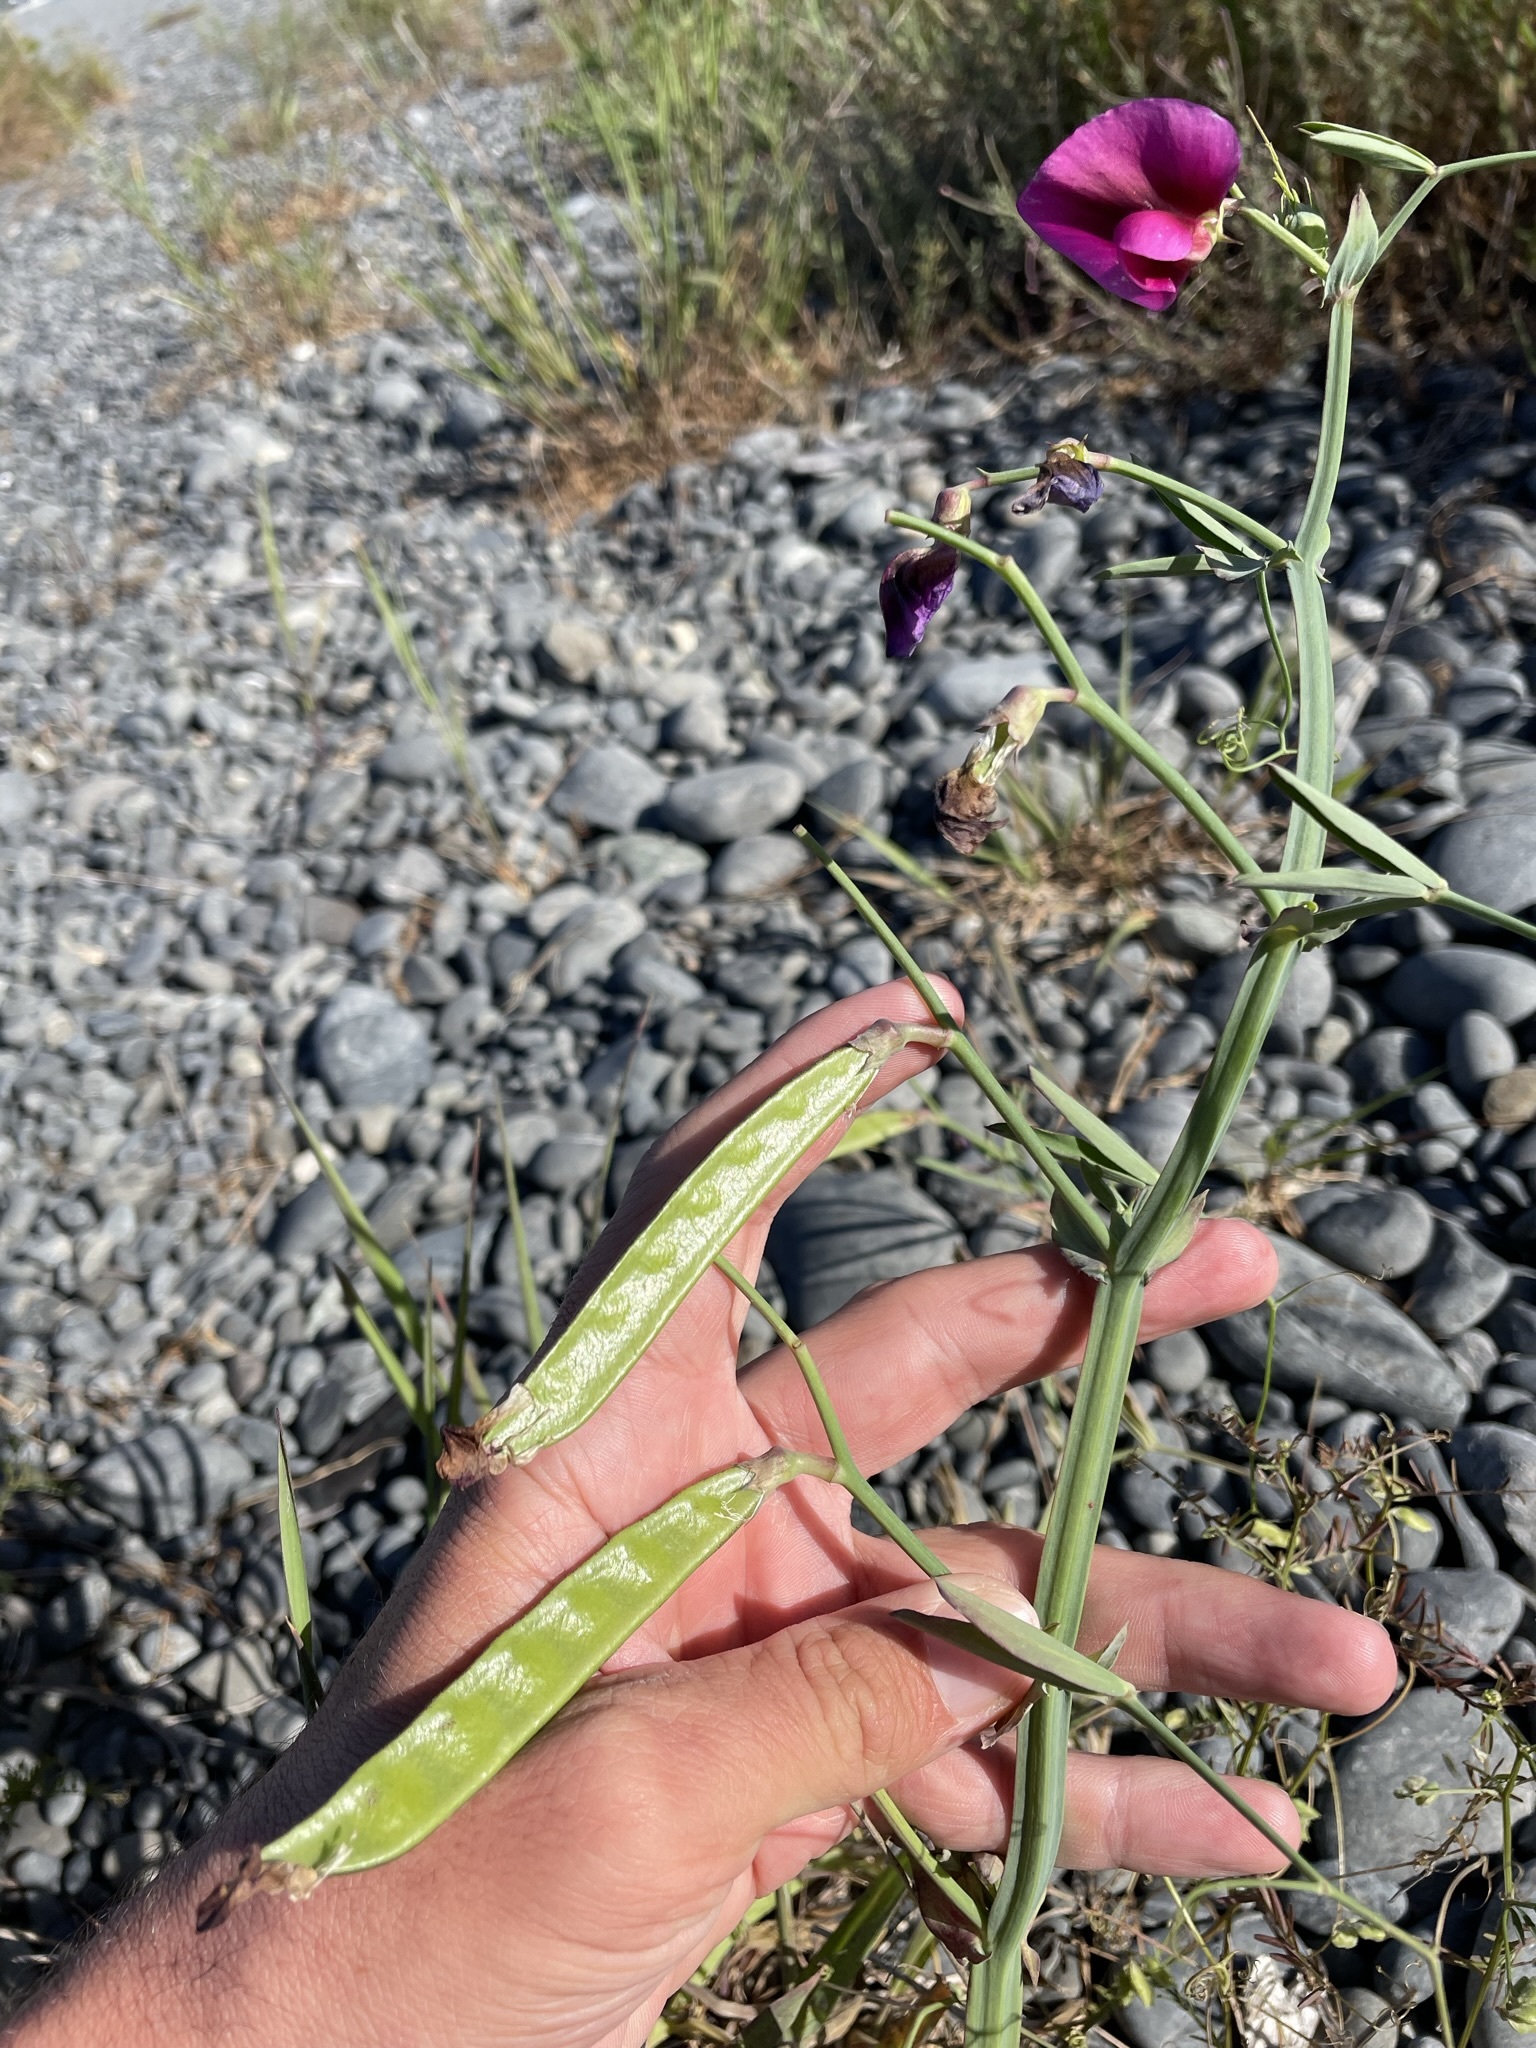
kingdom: Plantae
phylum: Tracheophyta
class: Magnoliopsida
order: Fabales
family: Fabaceae
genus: Lathyrus
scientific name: Lathyrus tingitanus
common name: Tangier pea
